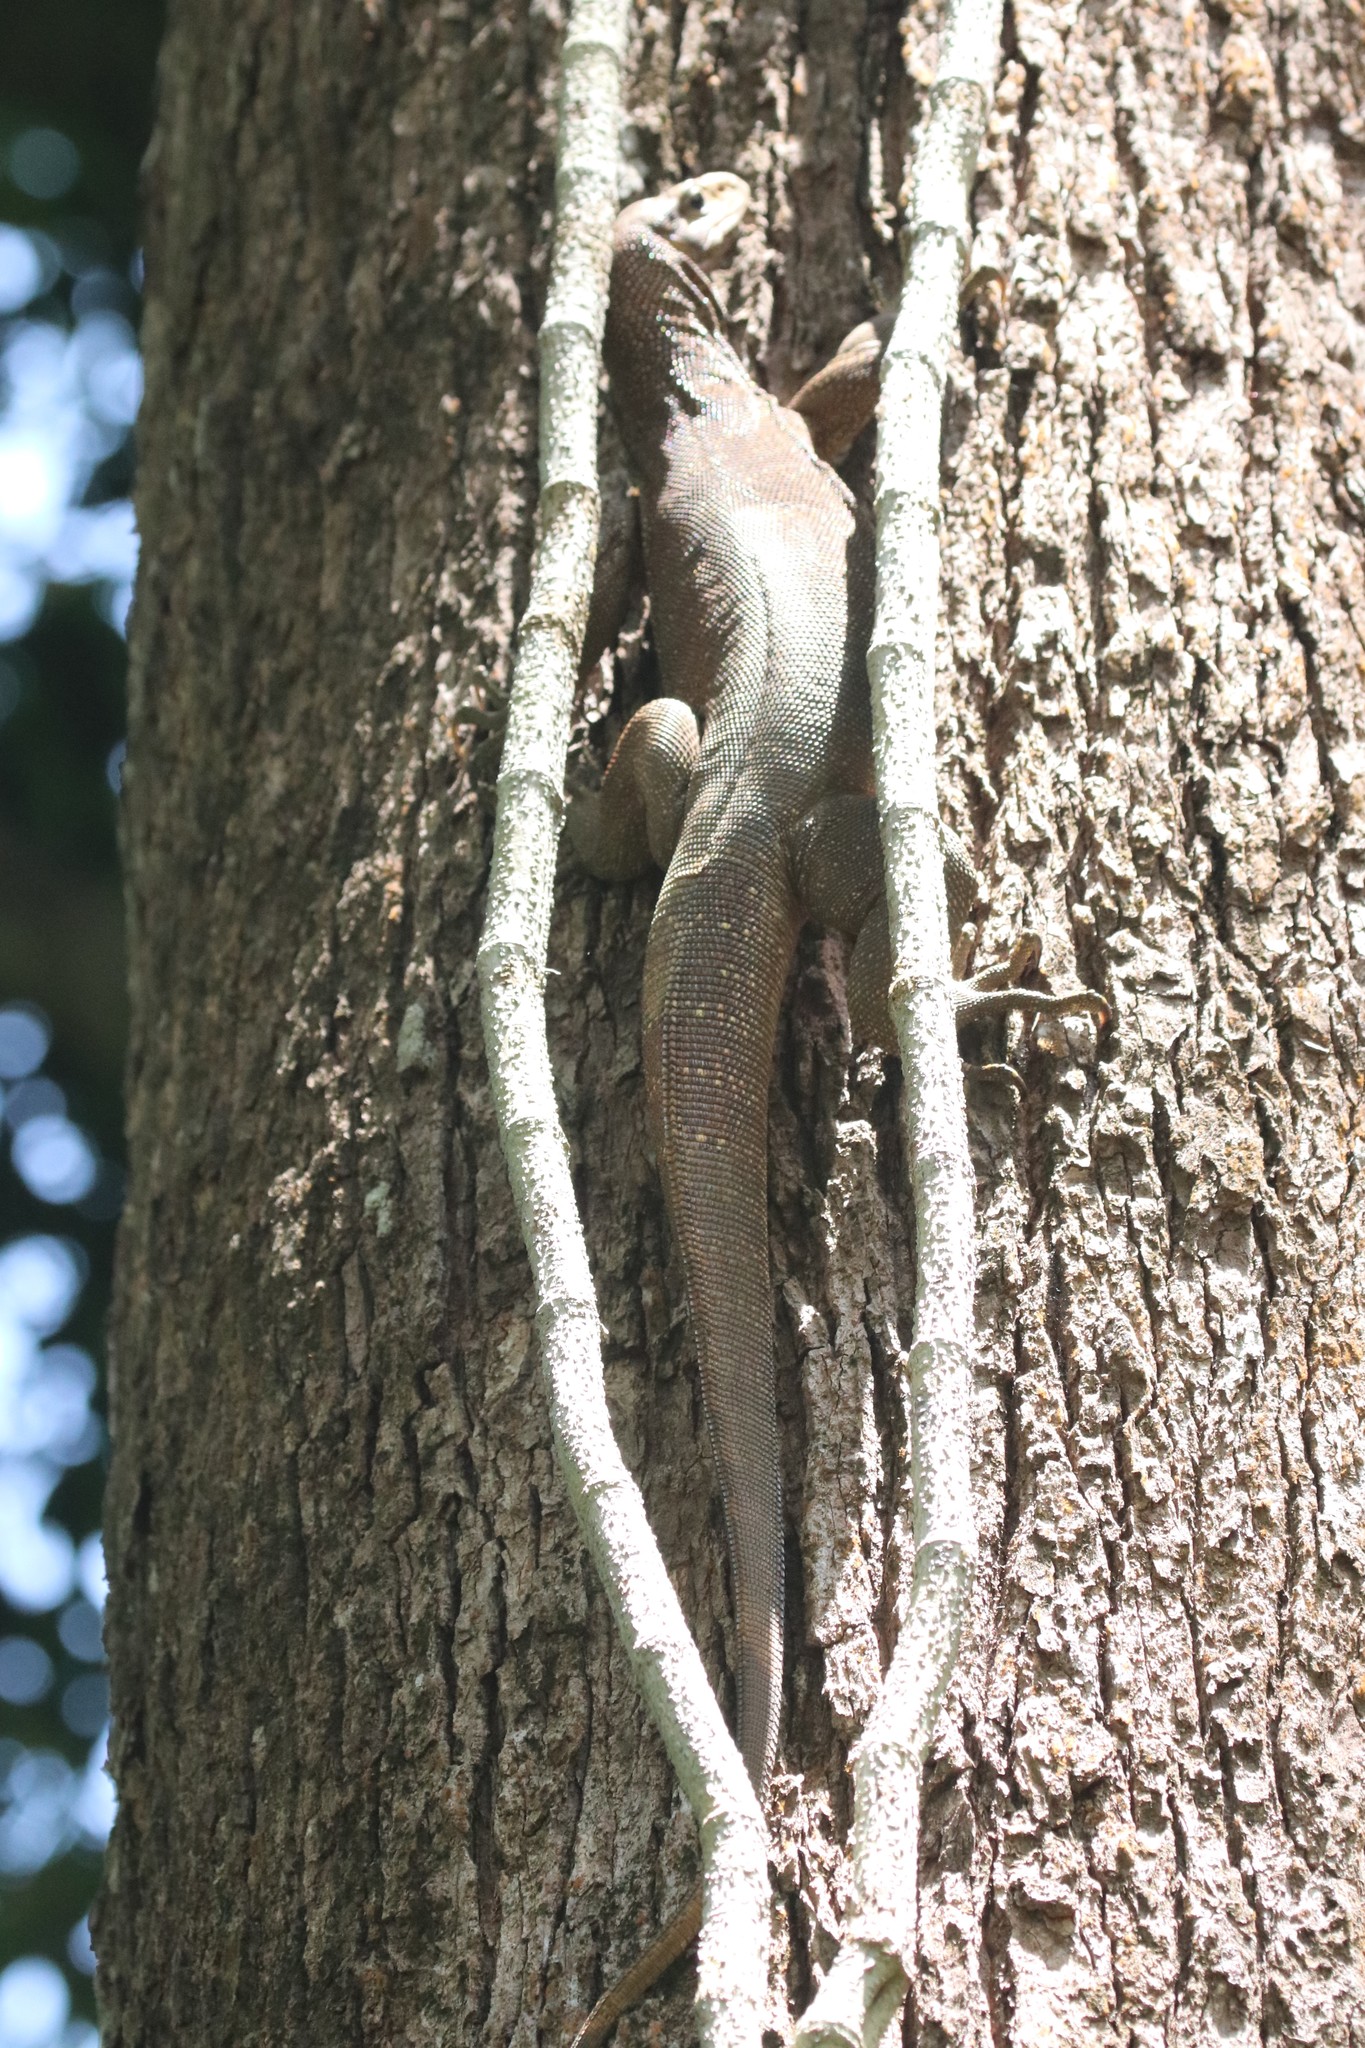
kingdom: Animalia
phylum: Chordata
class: Squamata
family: Varanidae
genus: Varanus
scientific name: Varanus nebulosus
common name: Clouded monitor
